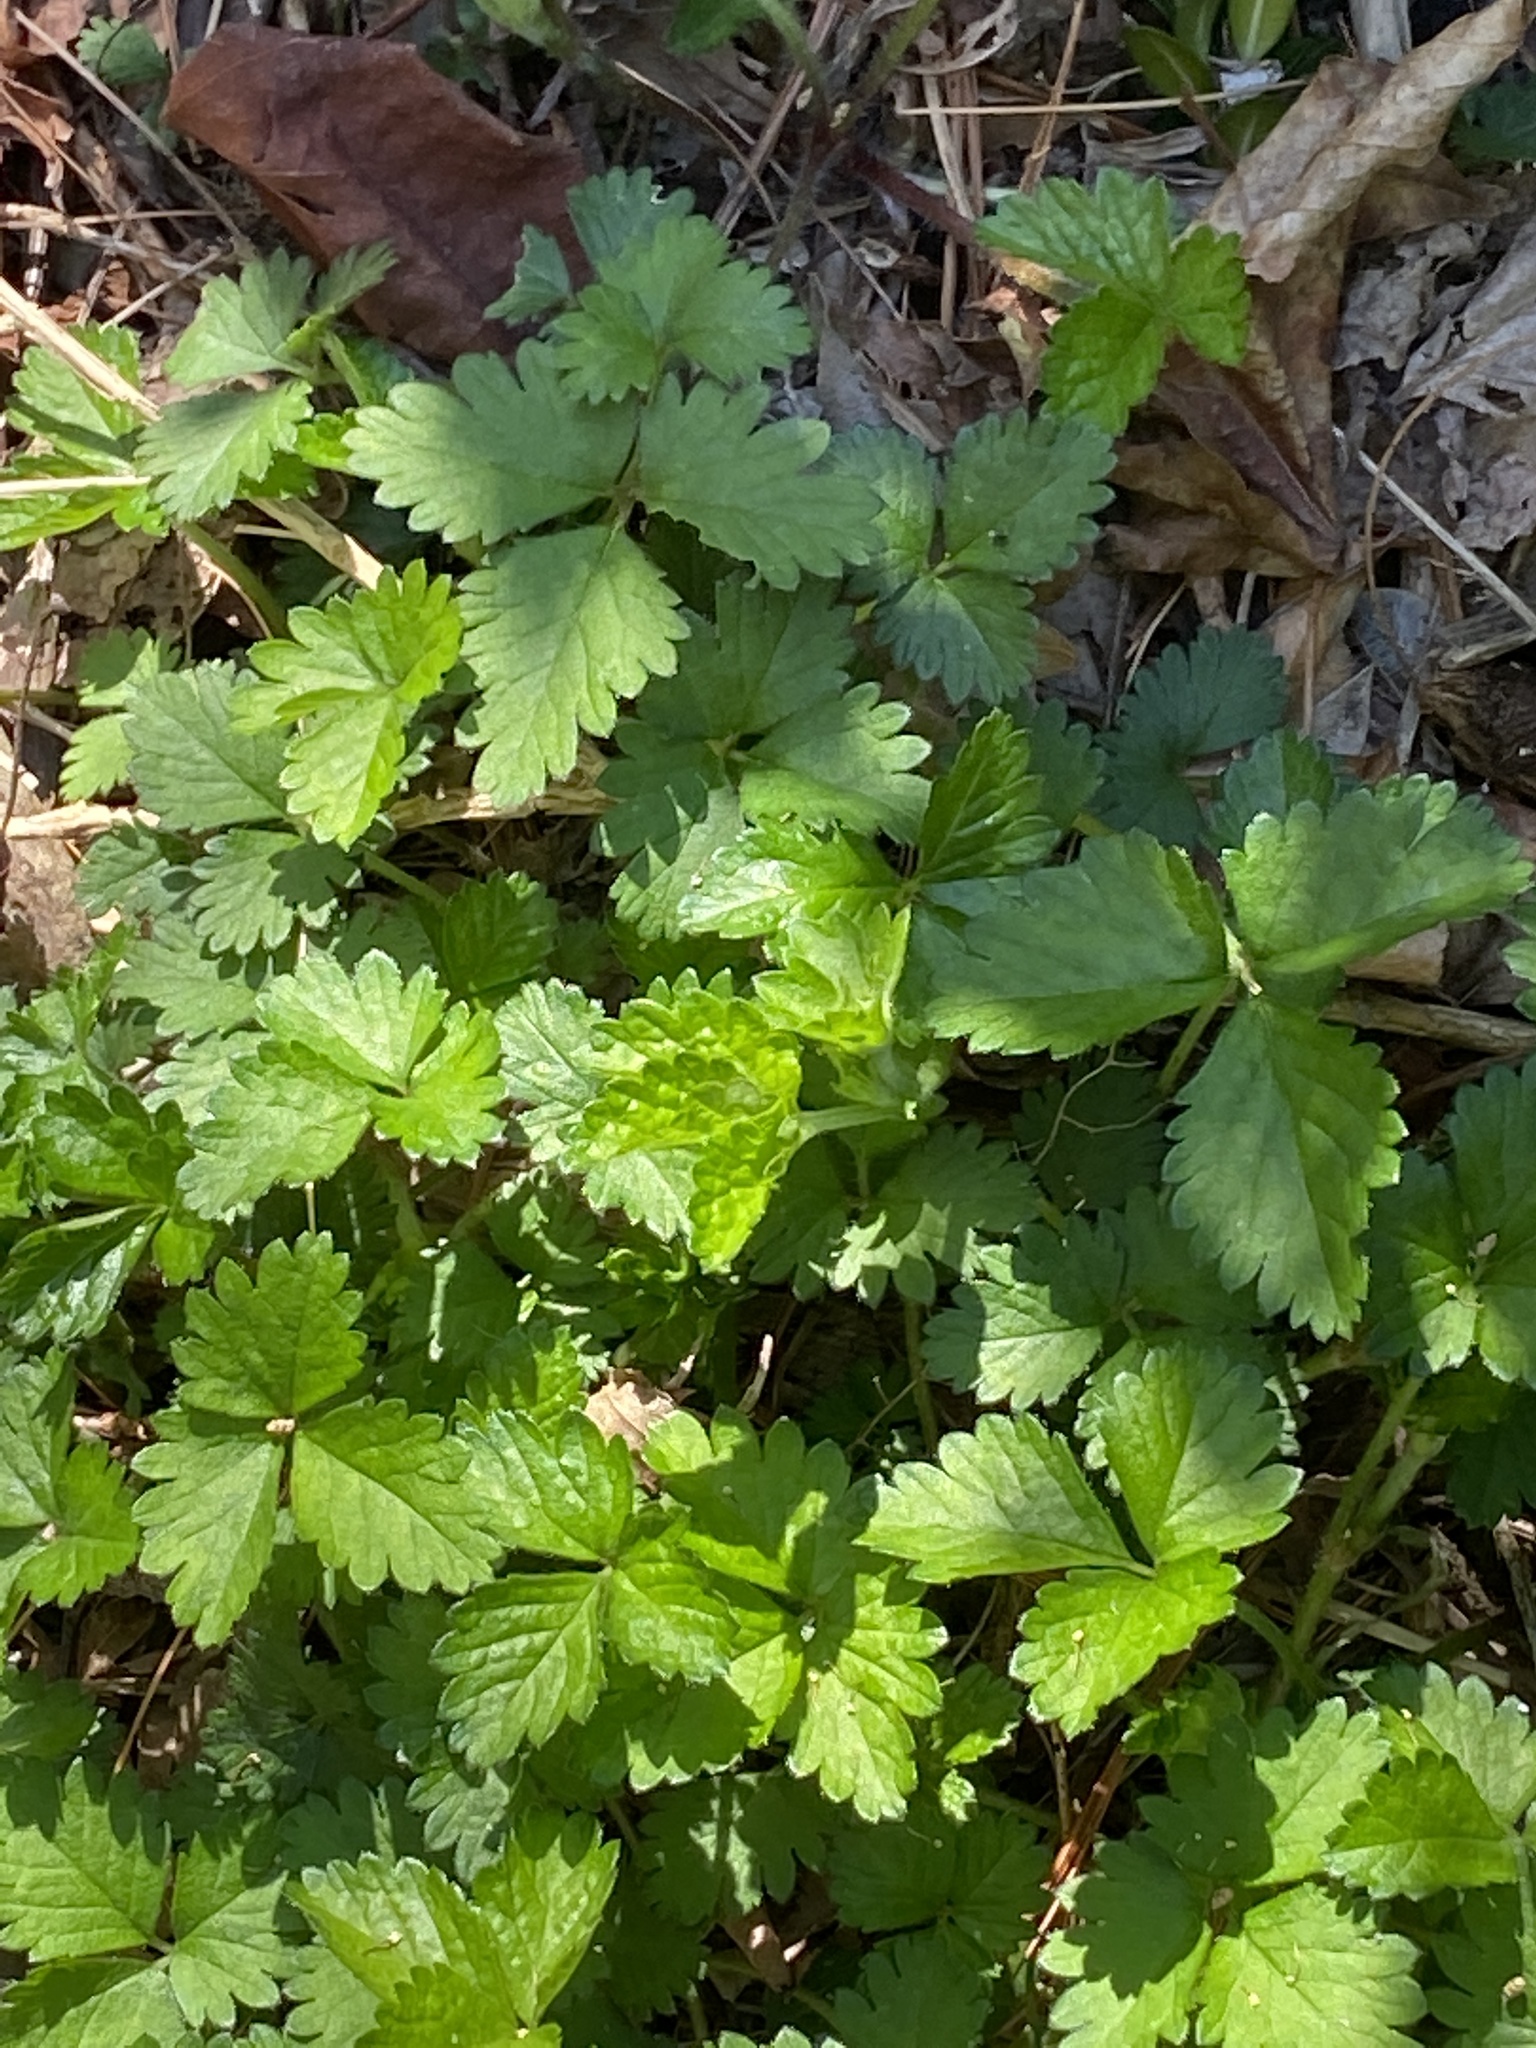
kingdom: Plantae
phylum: Tracheophyta
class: Magnoliopsida
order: Rosales
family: Rosaceae
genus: Potentilla
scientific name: Potentilla indica
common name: Yellow-flowered strawberry
